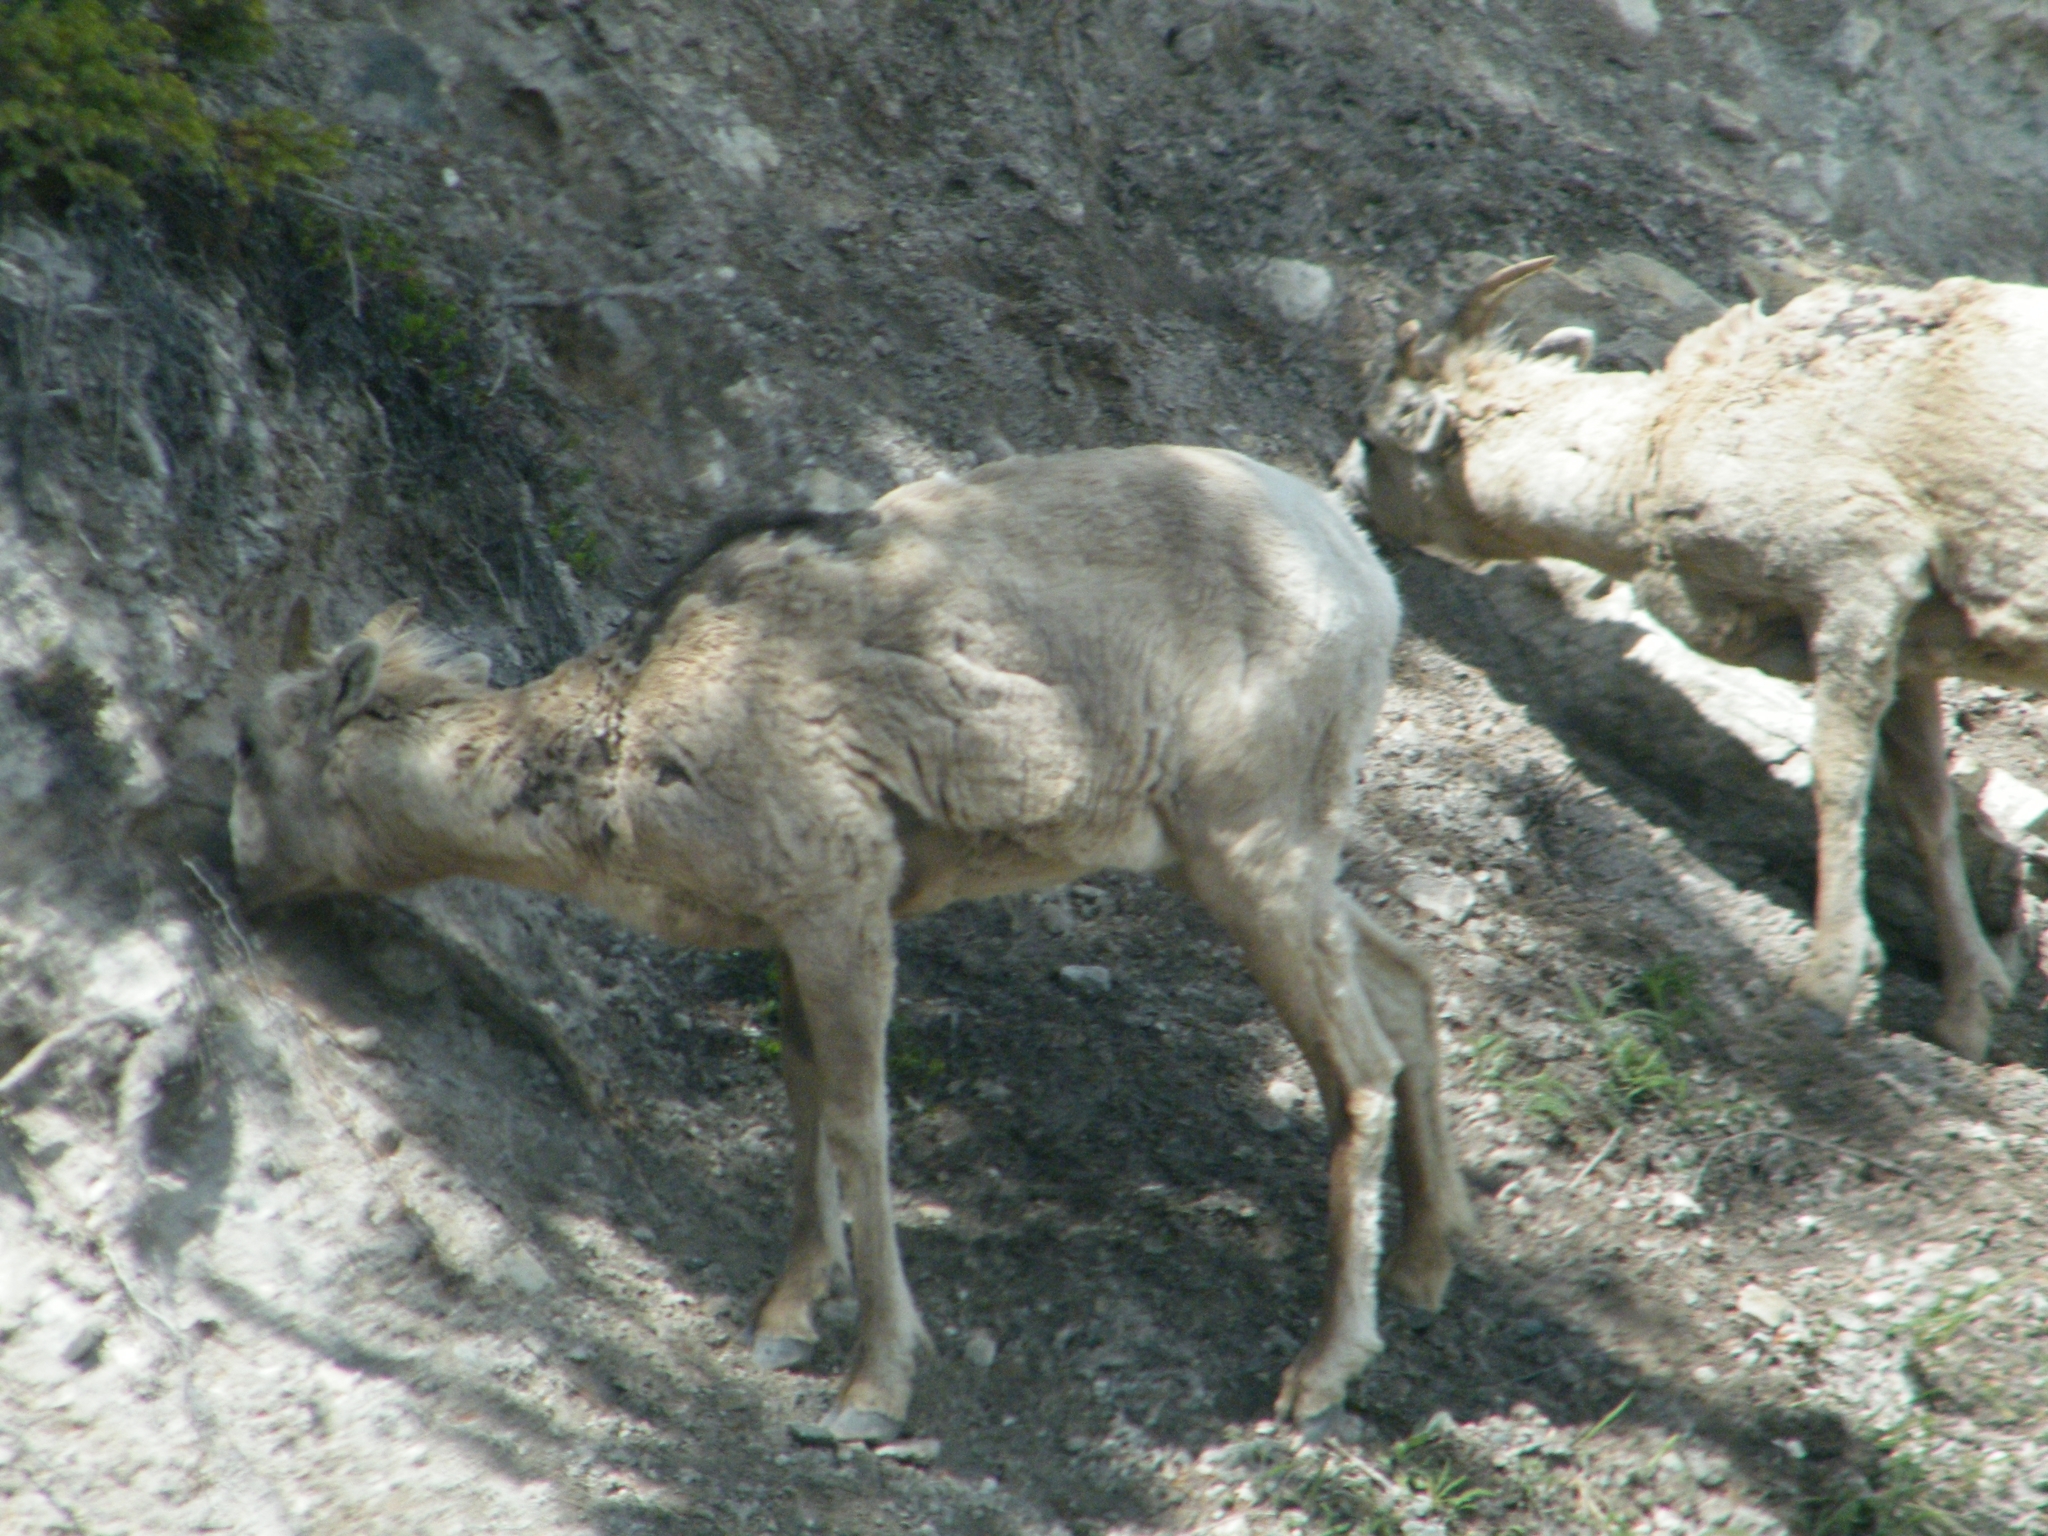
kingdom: Animalia
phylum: Chordata
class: Mammalia
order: Artiodactyla
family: Bovidae
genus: Ovis
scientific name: Ovis canadensis
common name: Bighorn sheep
